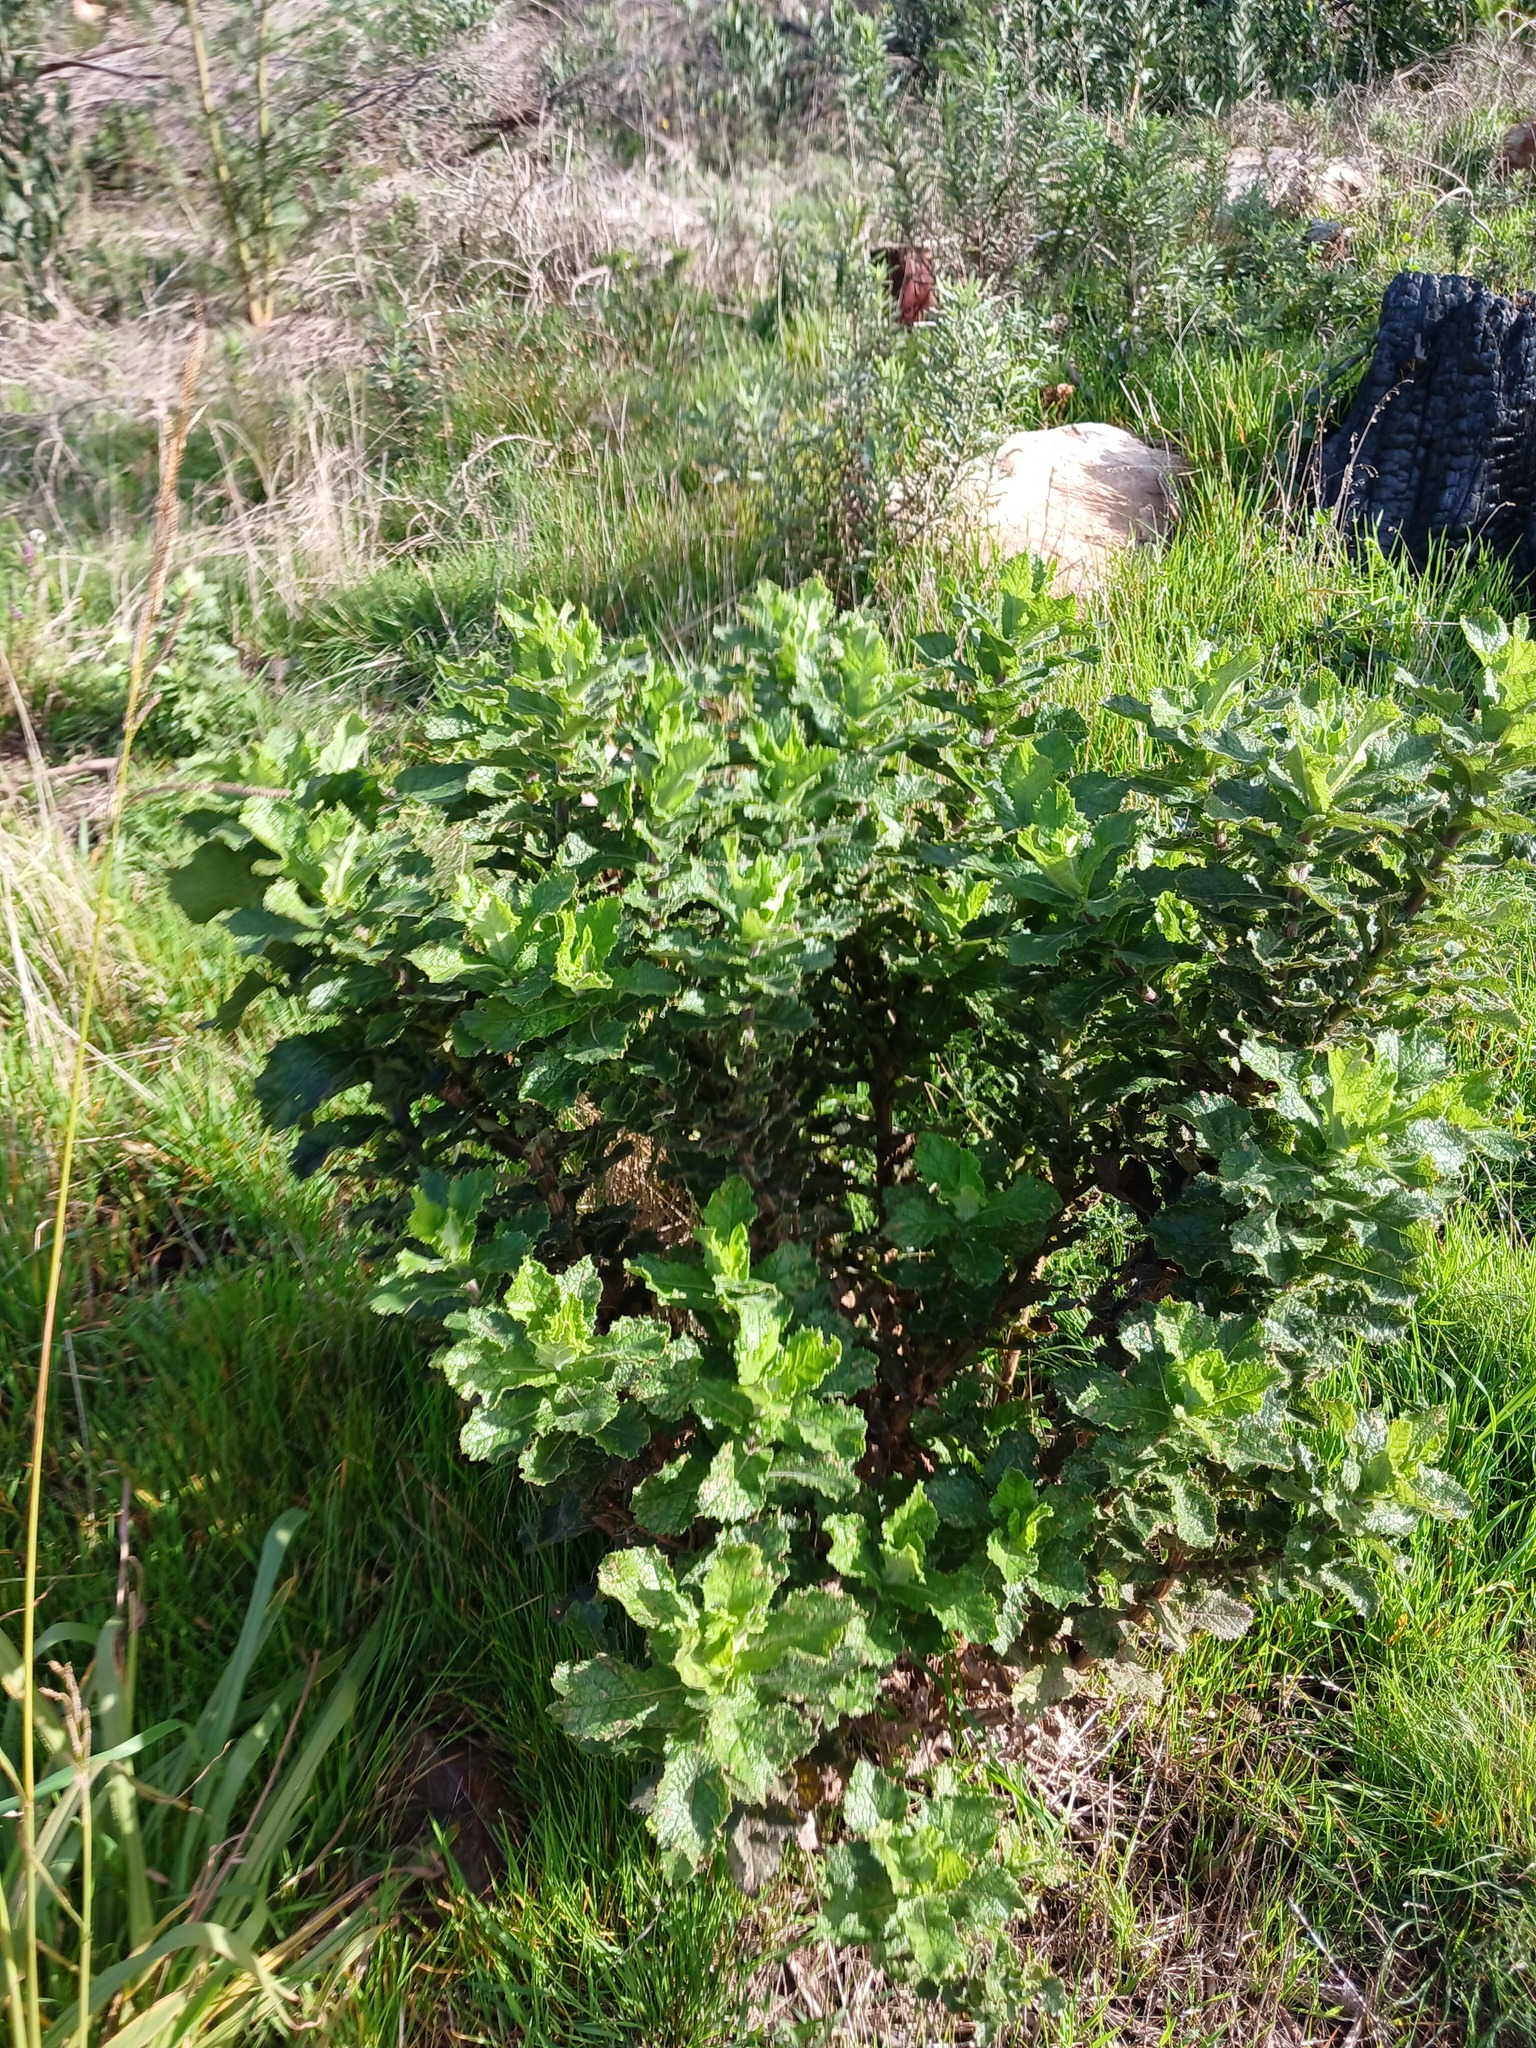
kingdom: Plantae
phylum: Tracheophyta
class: Magnoliopsida
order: Asterales
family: Asteraceae
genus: Senecio
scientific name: Senecio rigidus
